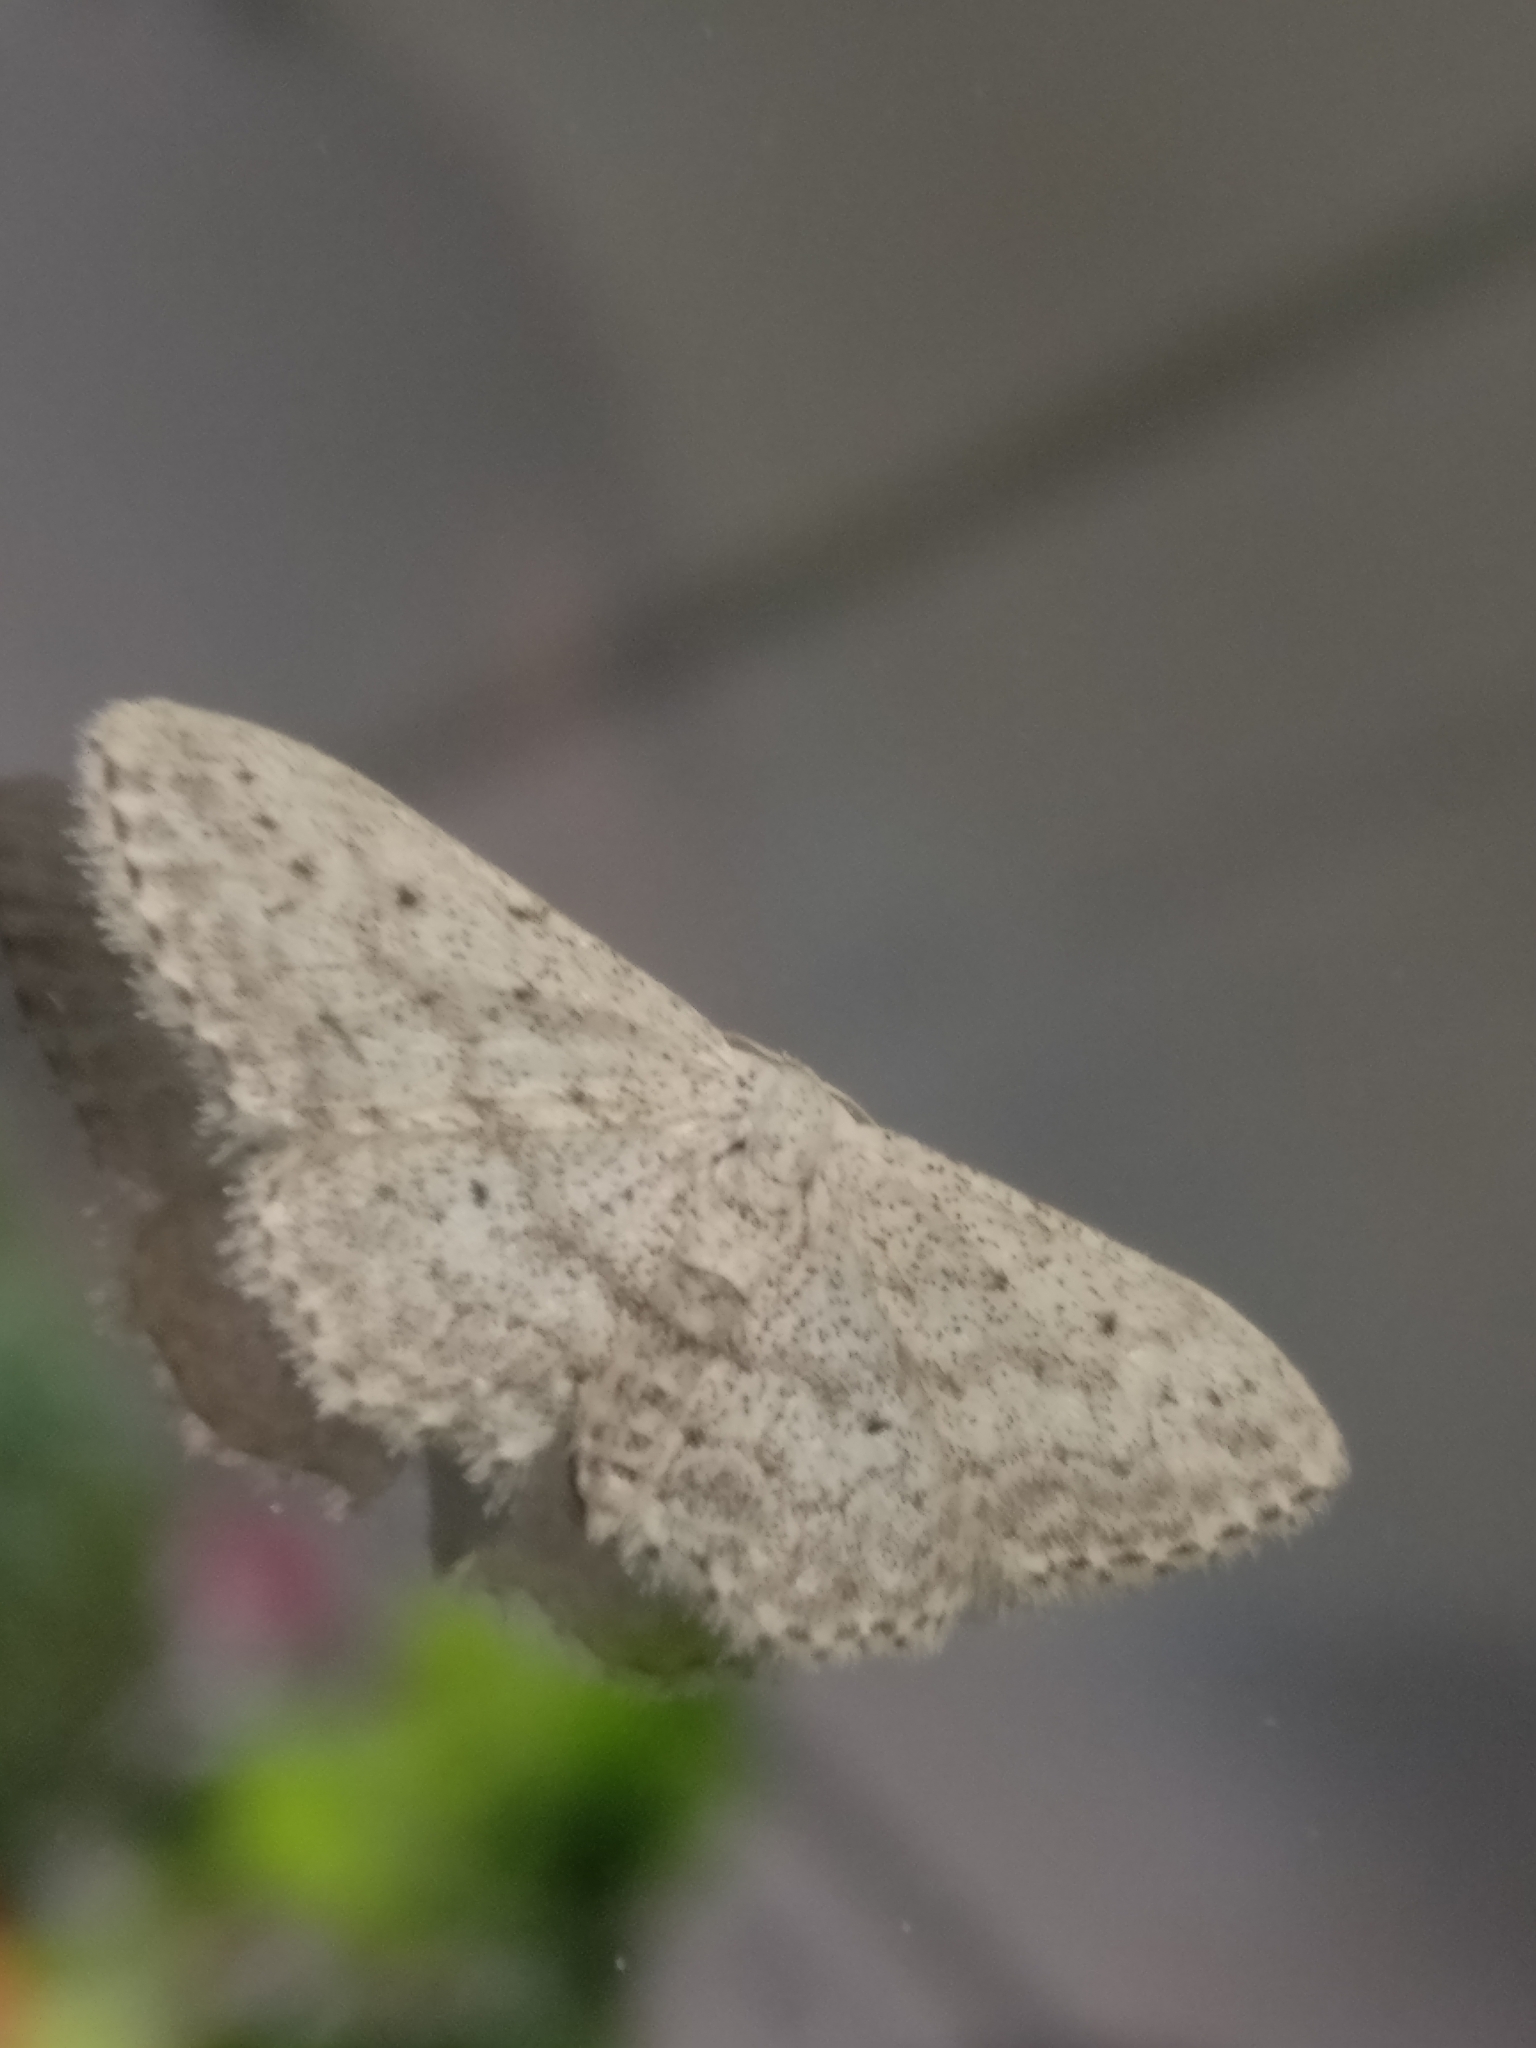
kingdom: Animalia
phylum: Arthropoda
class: Insecta
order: Lepidoptera
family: Geometridae
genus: Idaea
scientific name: Idaea seriata
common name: Small dusty wave
